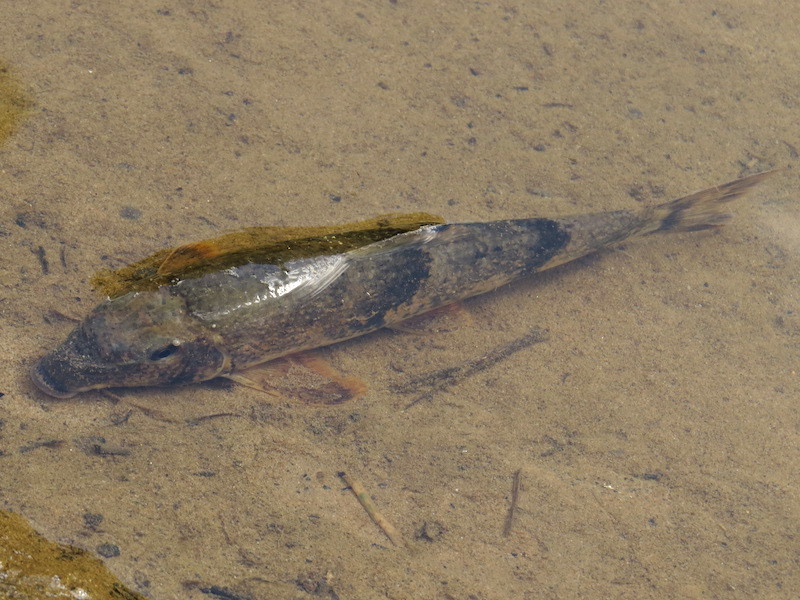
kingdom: Animalia
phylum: Chordata
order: Cypriniformes
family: Catostomidae
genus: Hypentelium
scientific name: Hypentelium nigricans
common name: Northern hog sucker
